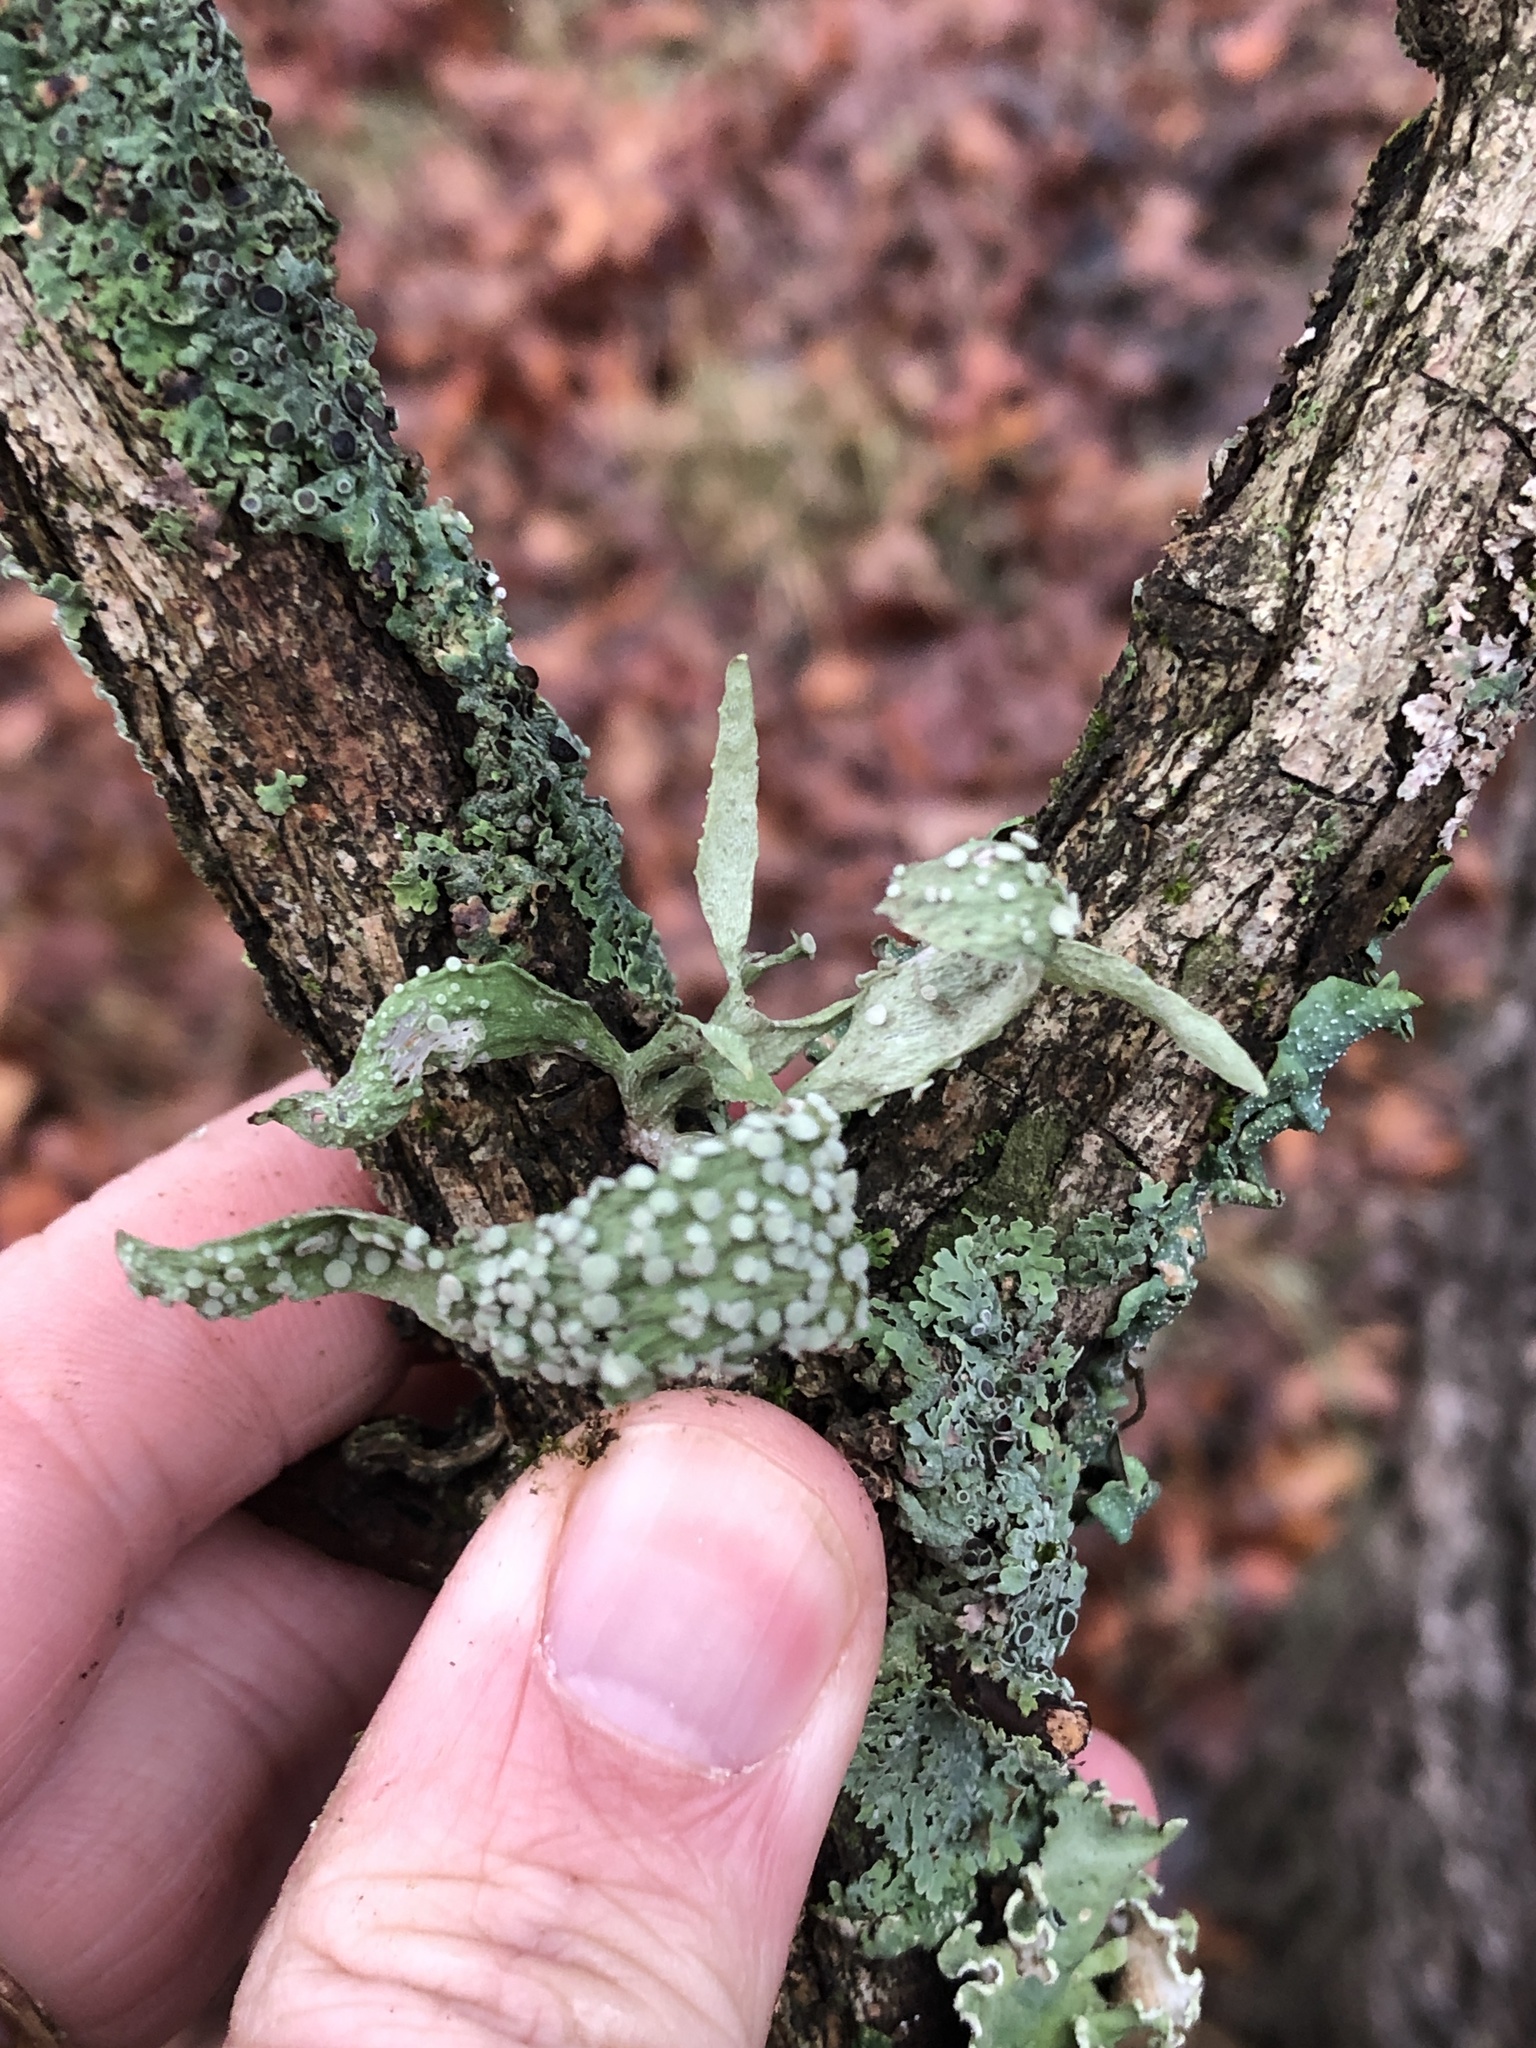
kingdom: Fungi
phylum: Ascomycota
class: Lecanoromycetes
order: Lecanorales
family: Ramalinaceae
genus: Ramalina
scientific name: Ramalina celastri
